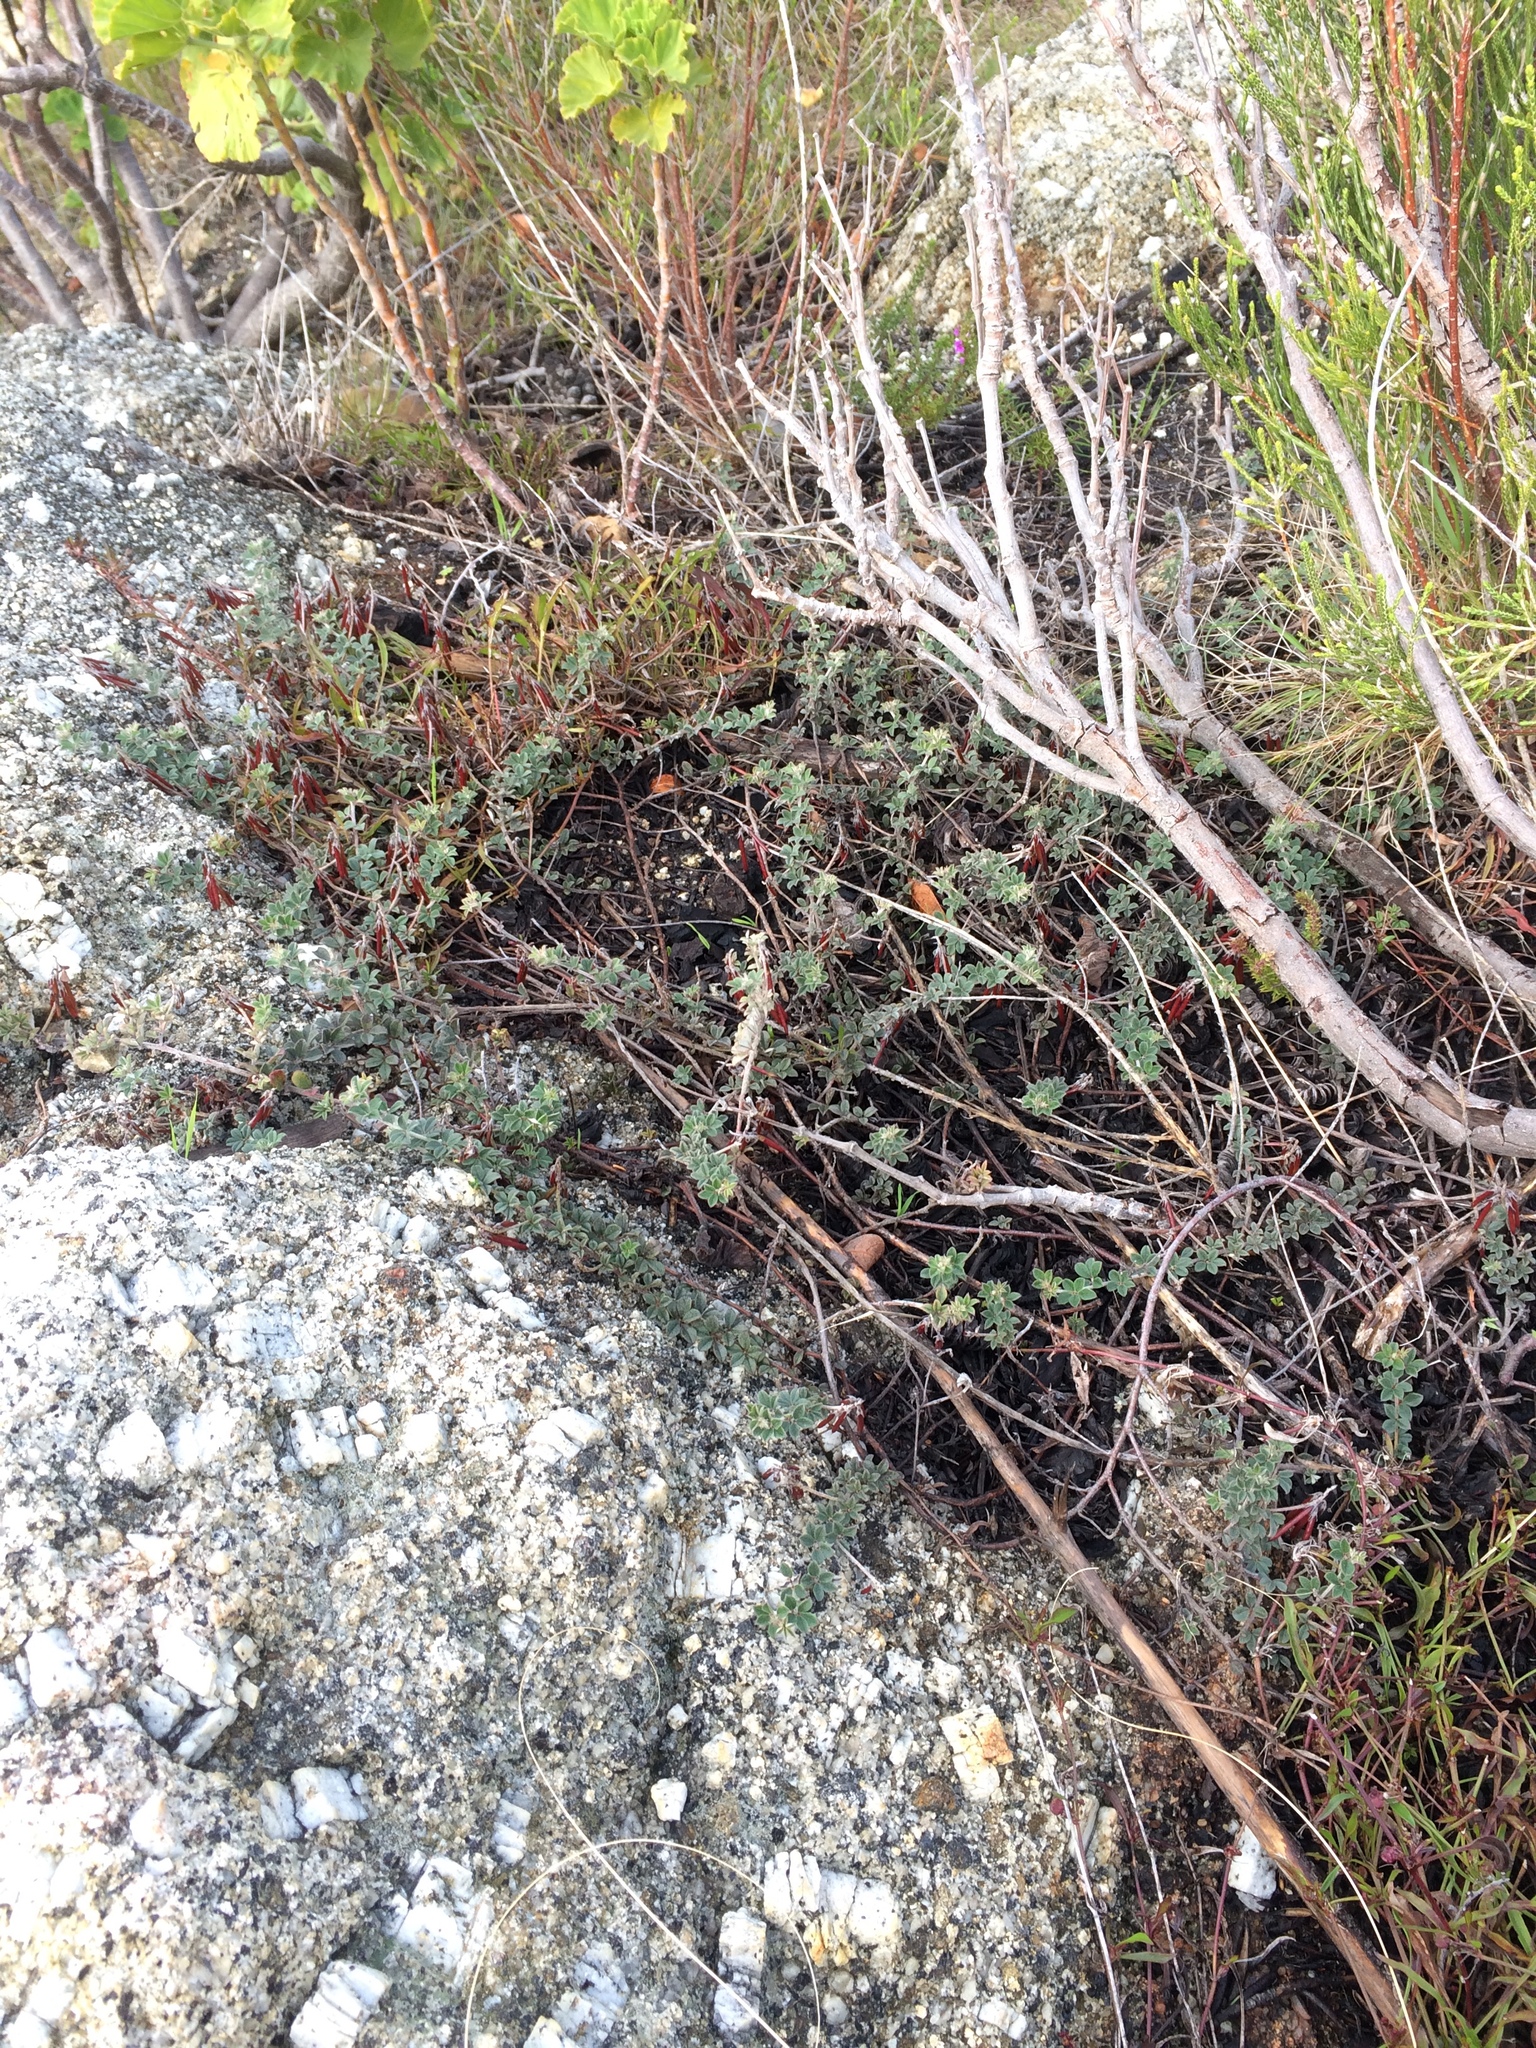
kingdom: Plantae
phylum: Tracheophyta
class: Magnoliopsida
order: Fabales
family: Fabaceae
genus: Indigofera
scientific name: Indigofera mauritanica
